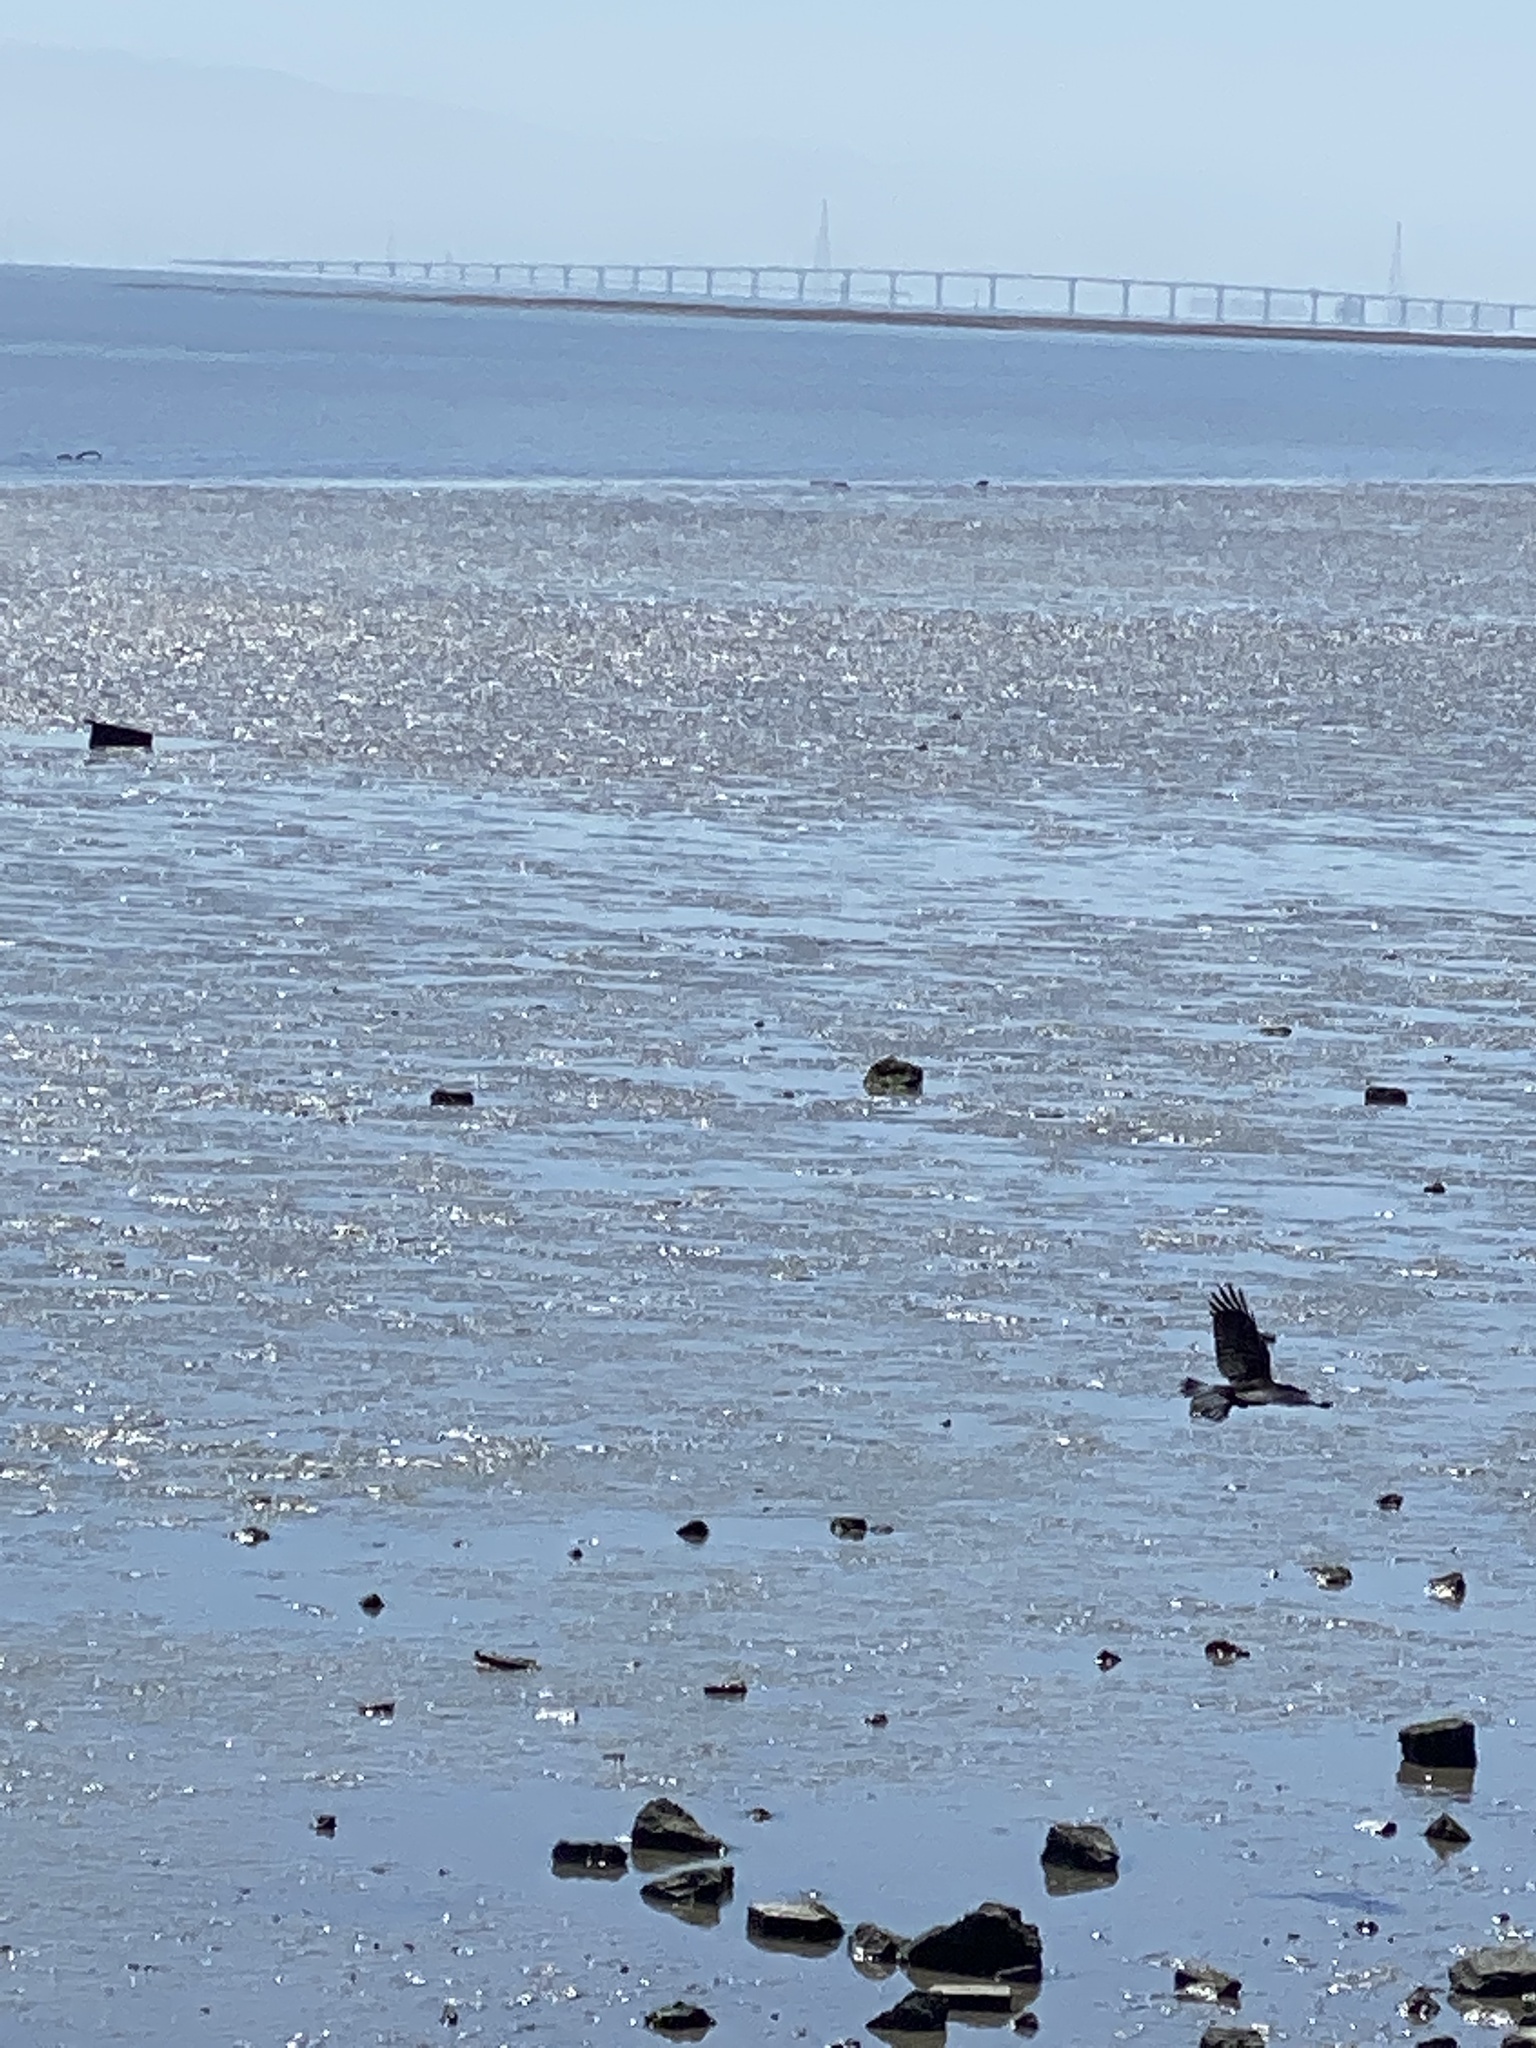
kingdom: Animalia
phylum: Chordata
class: Aves
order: Passeriformes
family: Corvidae
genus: Corvus
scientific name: Corvus brachyrhynchos
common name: American crow
